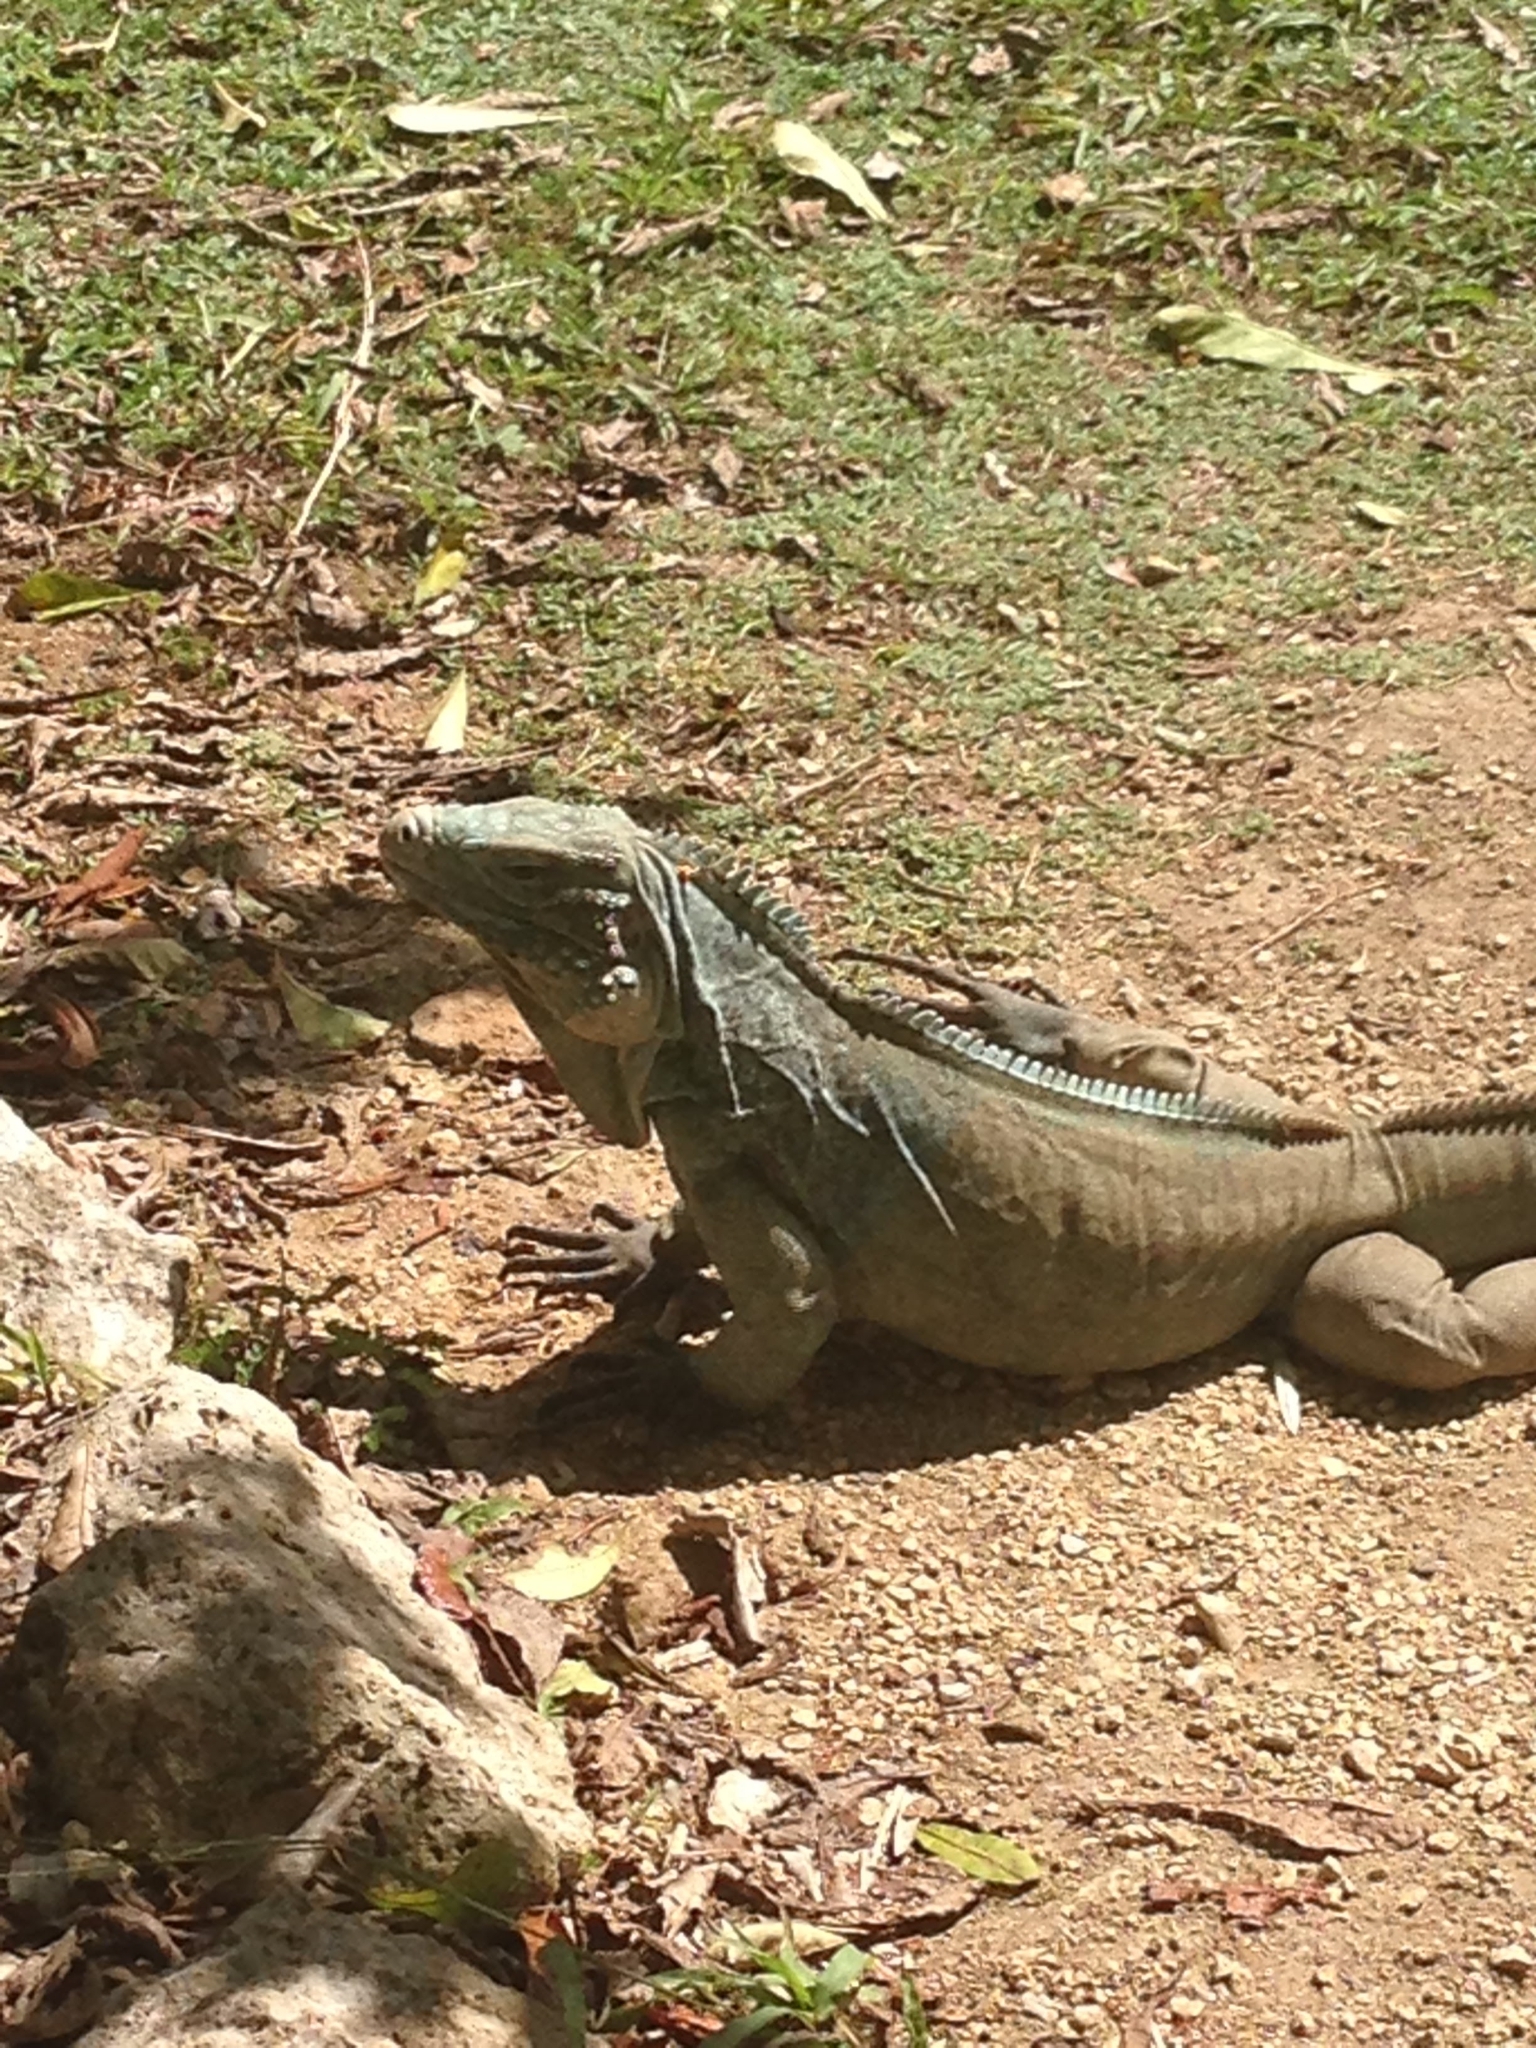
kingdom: Animalia
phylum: Chordata
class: Squamata
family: Iguanidae
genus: Cyclura
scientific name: Cyclura lewisi
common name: Grand cayman blue iguana
